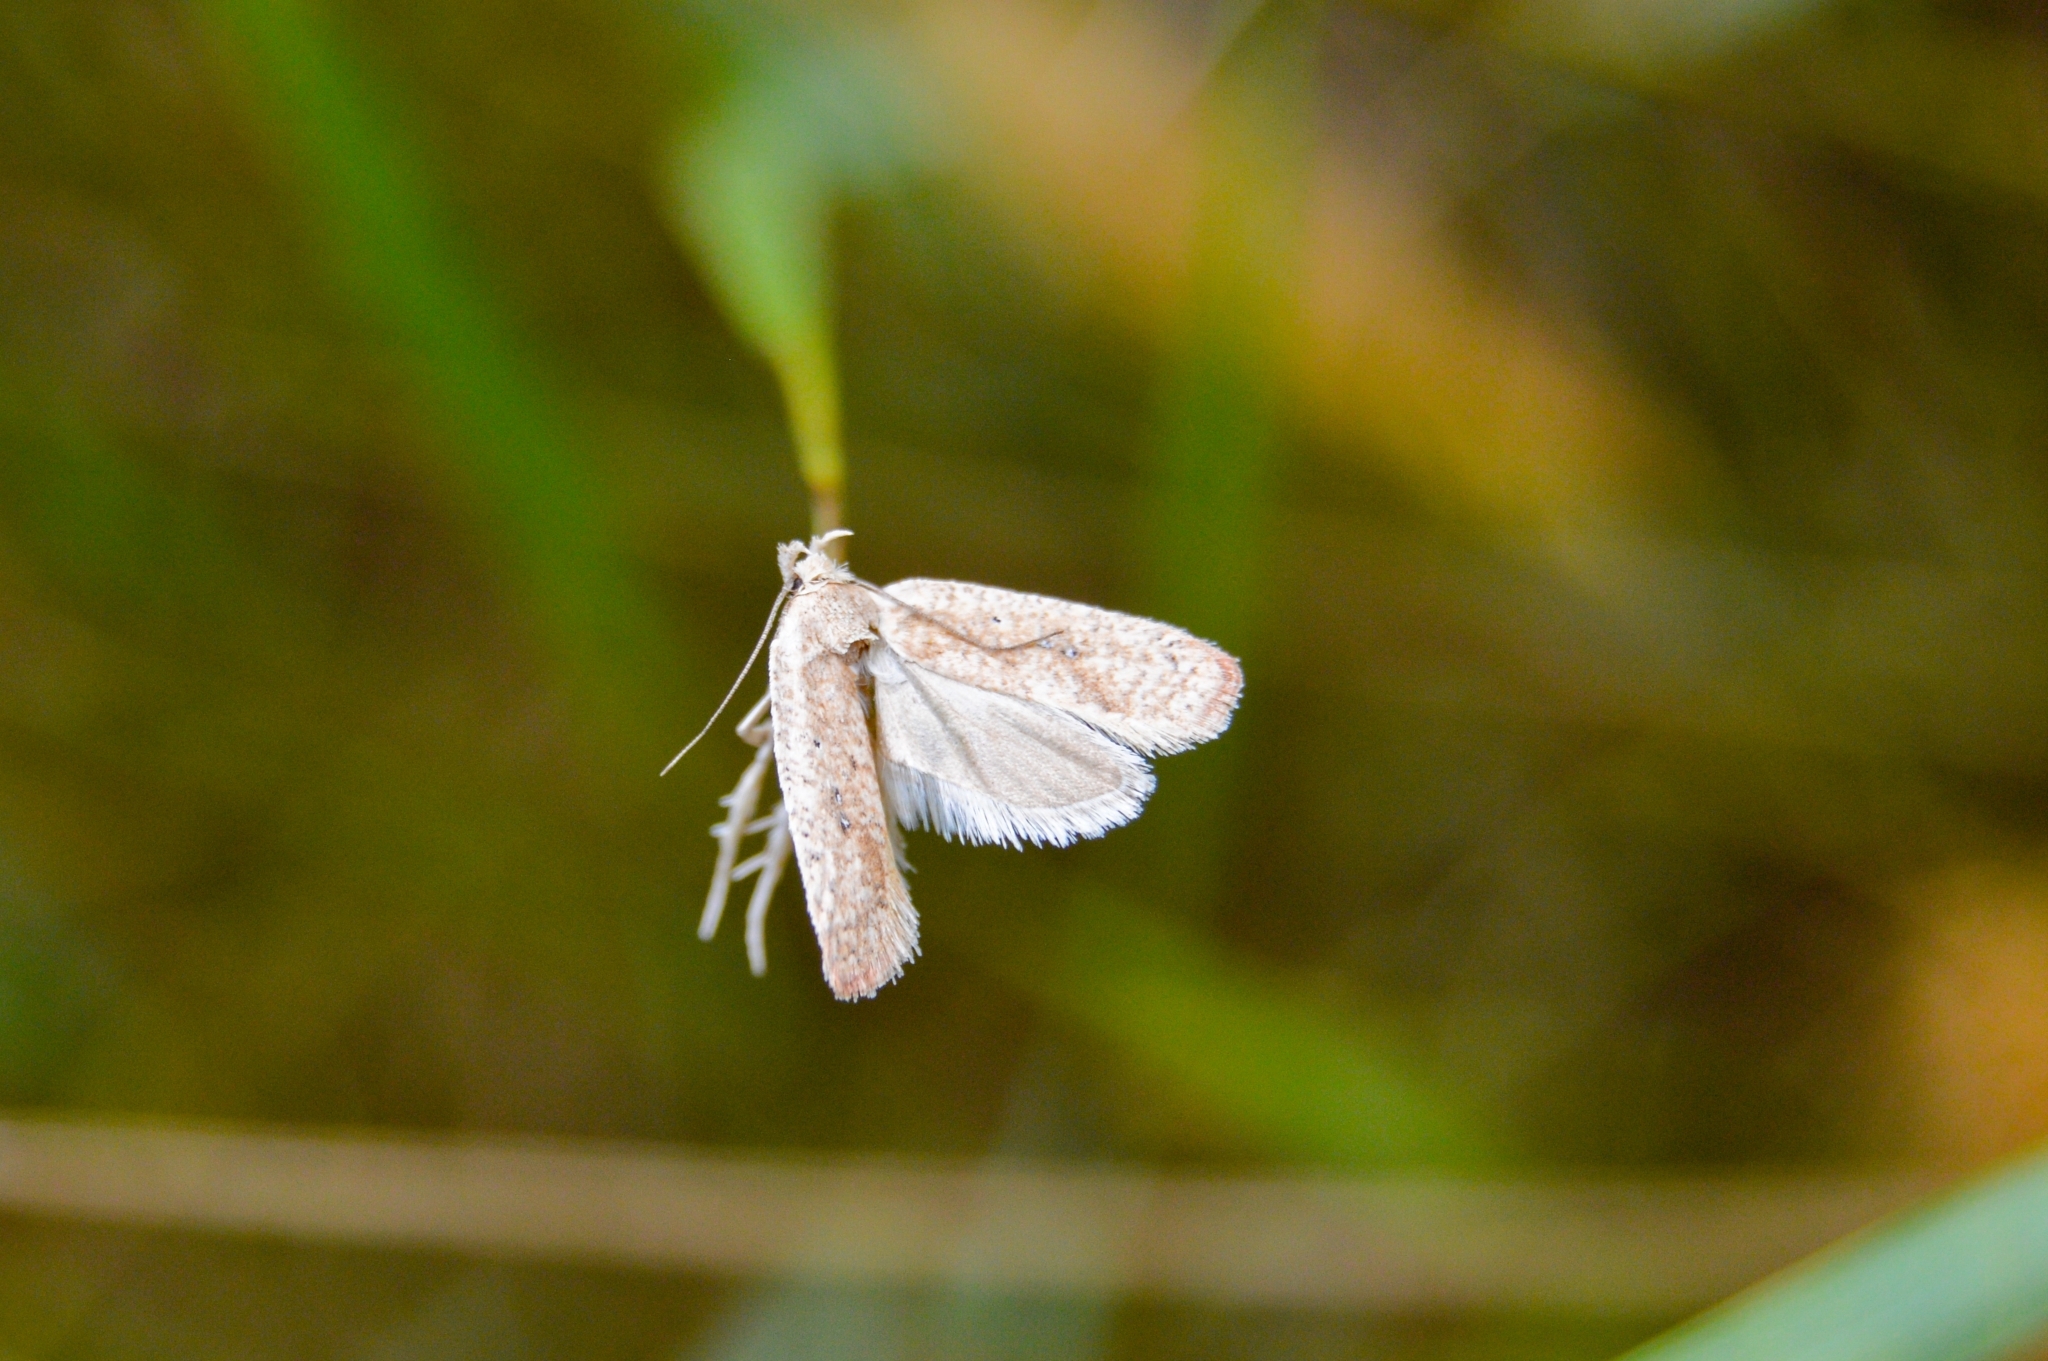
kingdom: Animalia
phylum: Arthropoda
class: Insecta
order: Lepidoptera
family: Depressariidae
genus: Agonopterix
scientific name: Agonopterix irrorata
